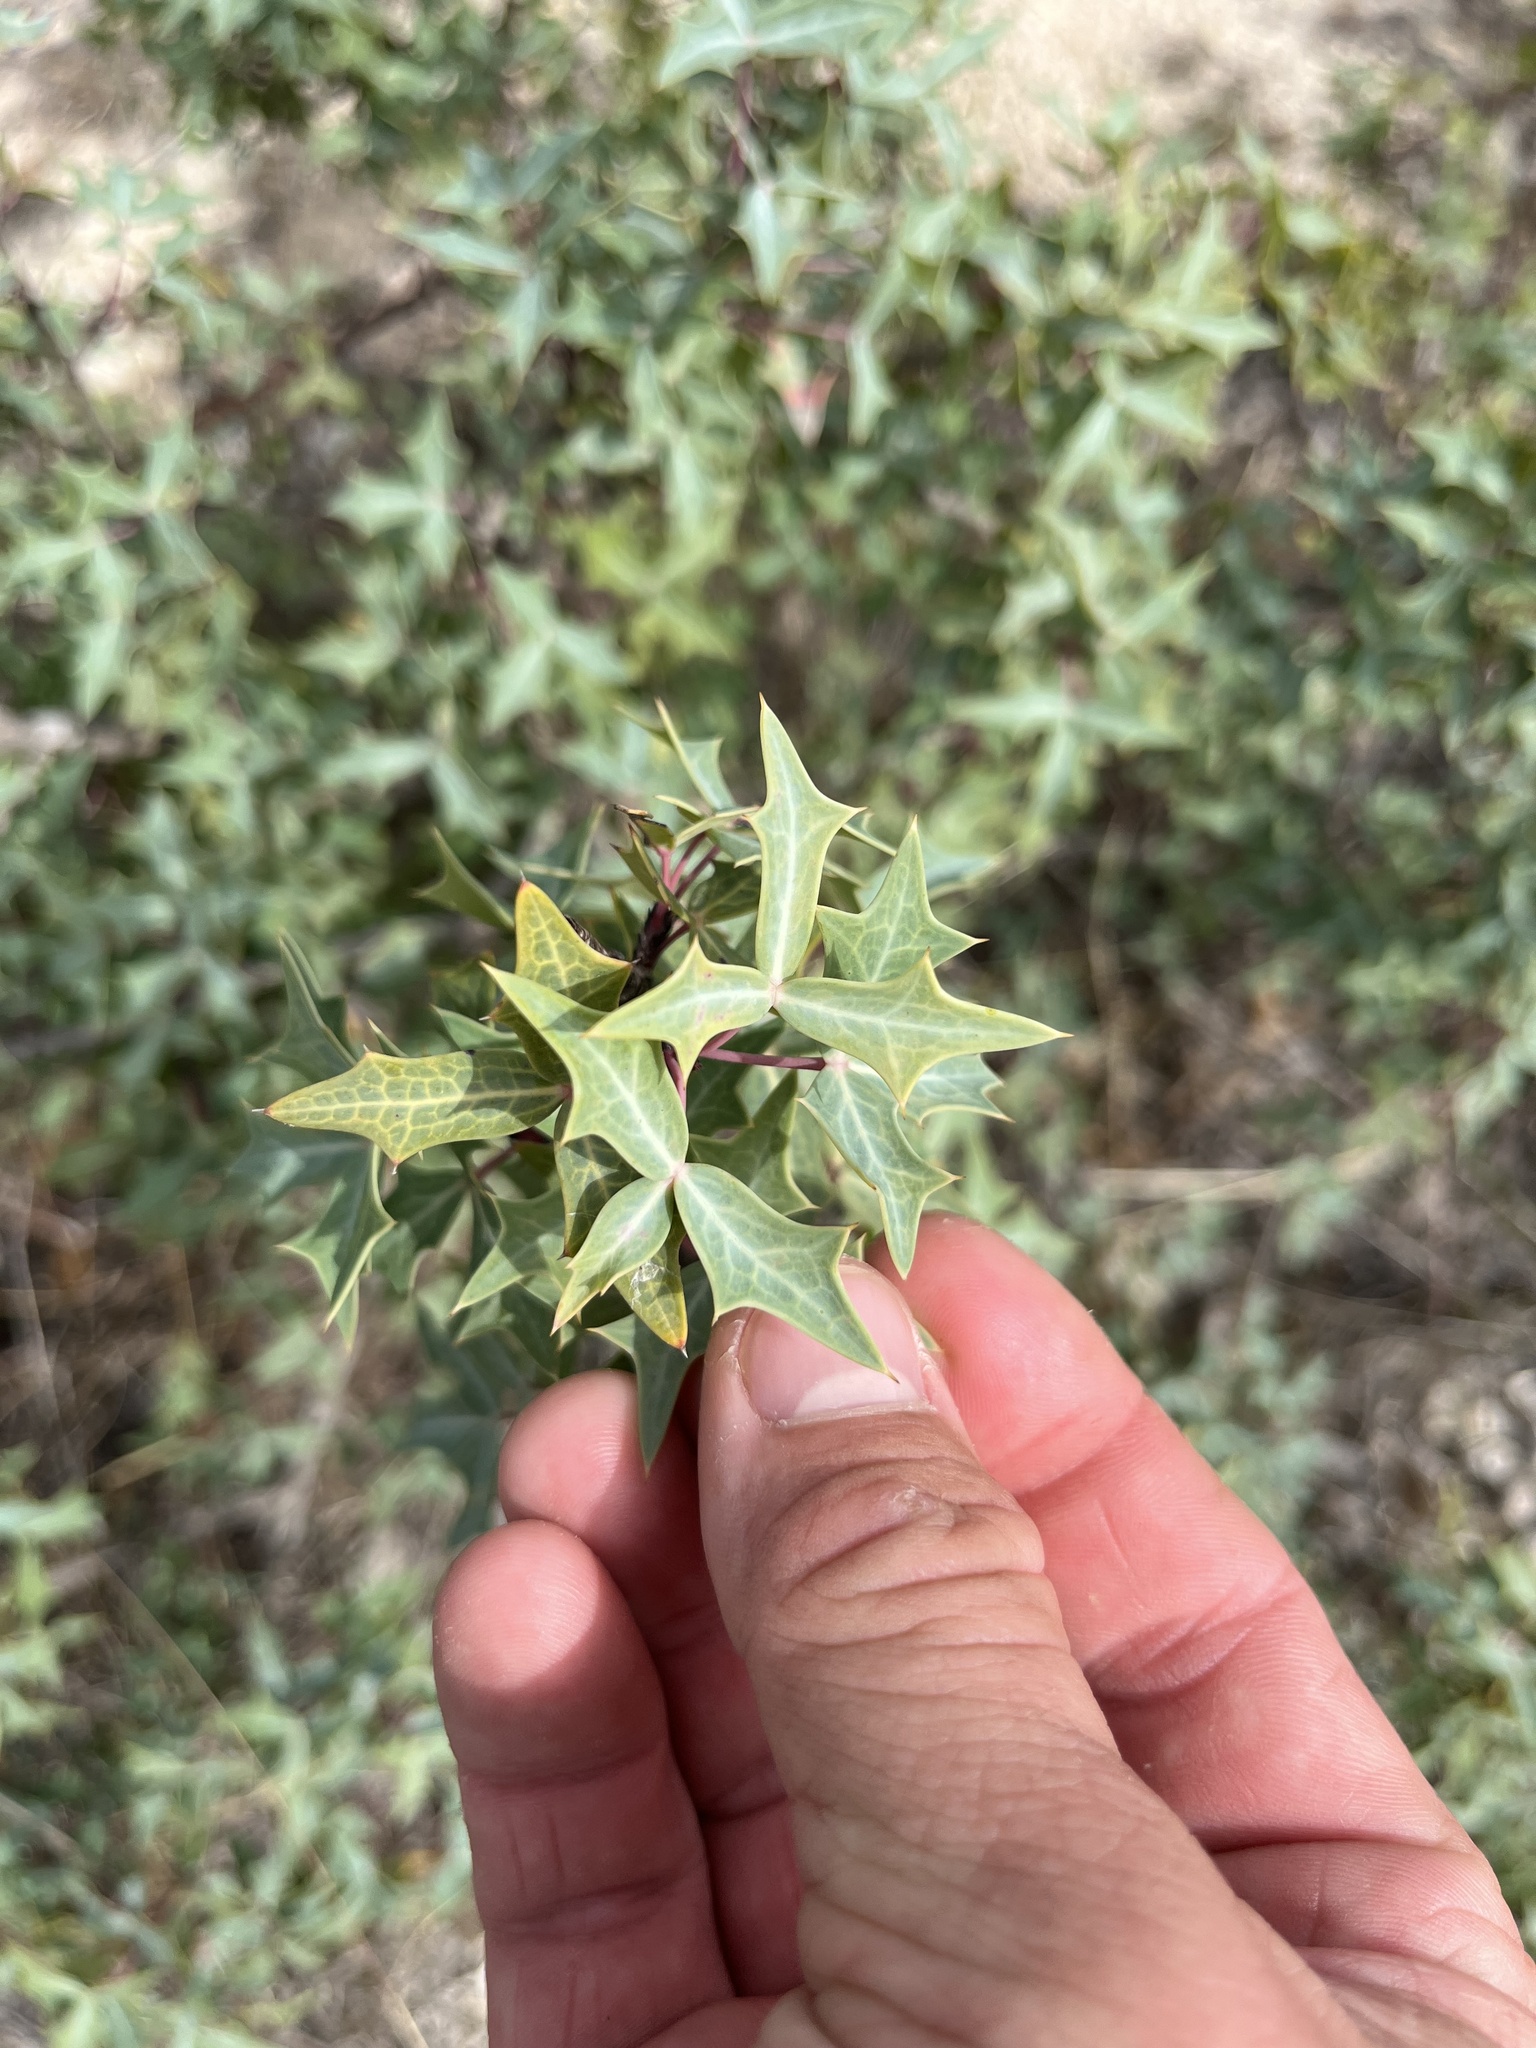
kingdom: Plantae
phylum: Tracheophyta
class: Magnoliopsida
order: Ranunculales
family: Berberidaceae
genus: Alloberberis
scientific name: Alloberberis trifoliolata
